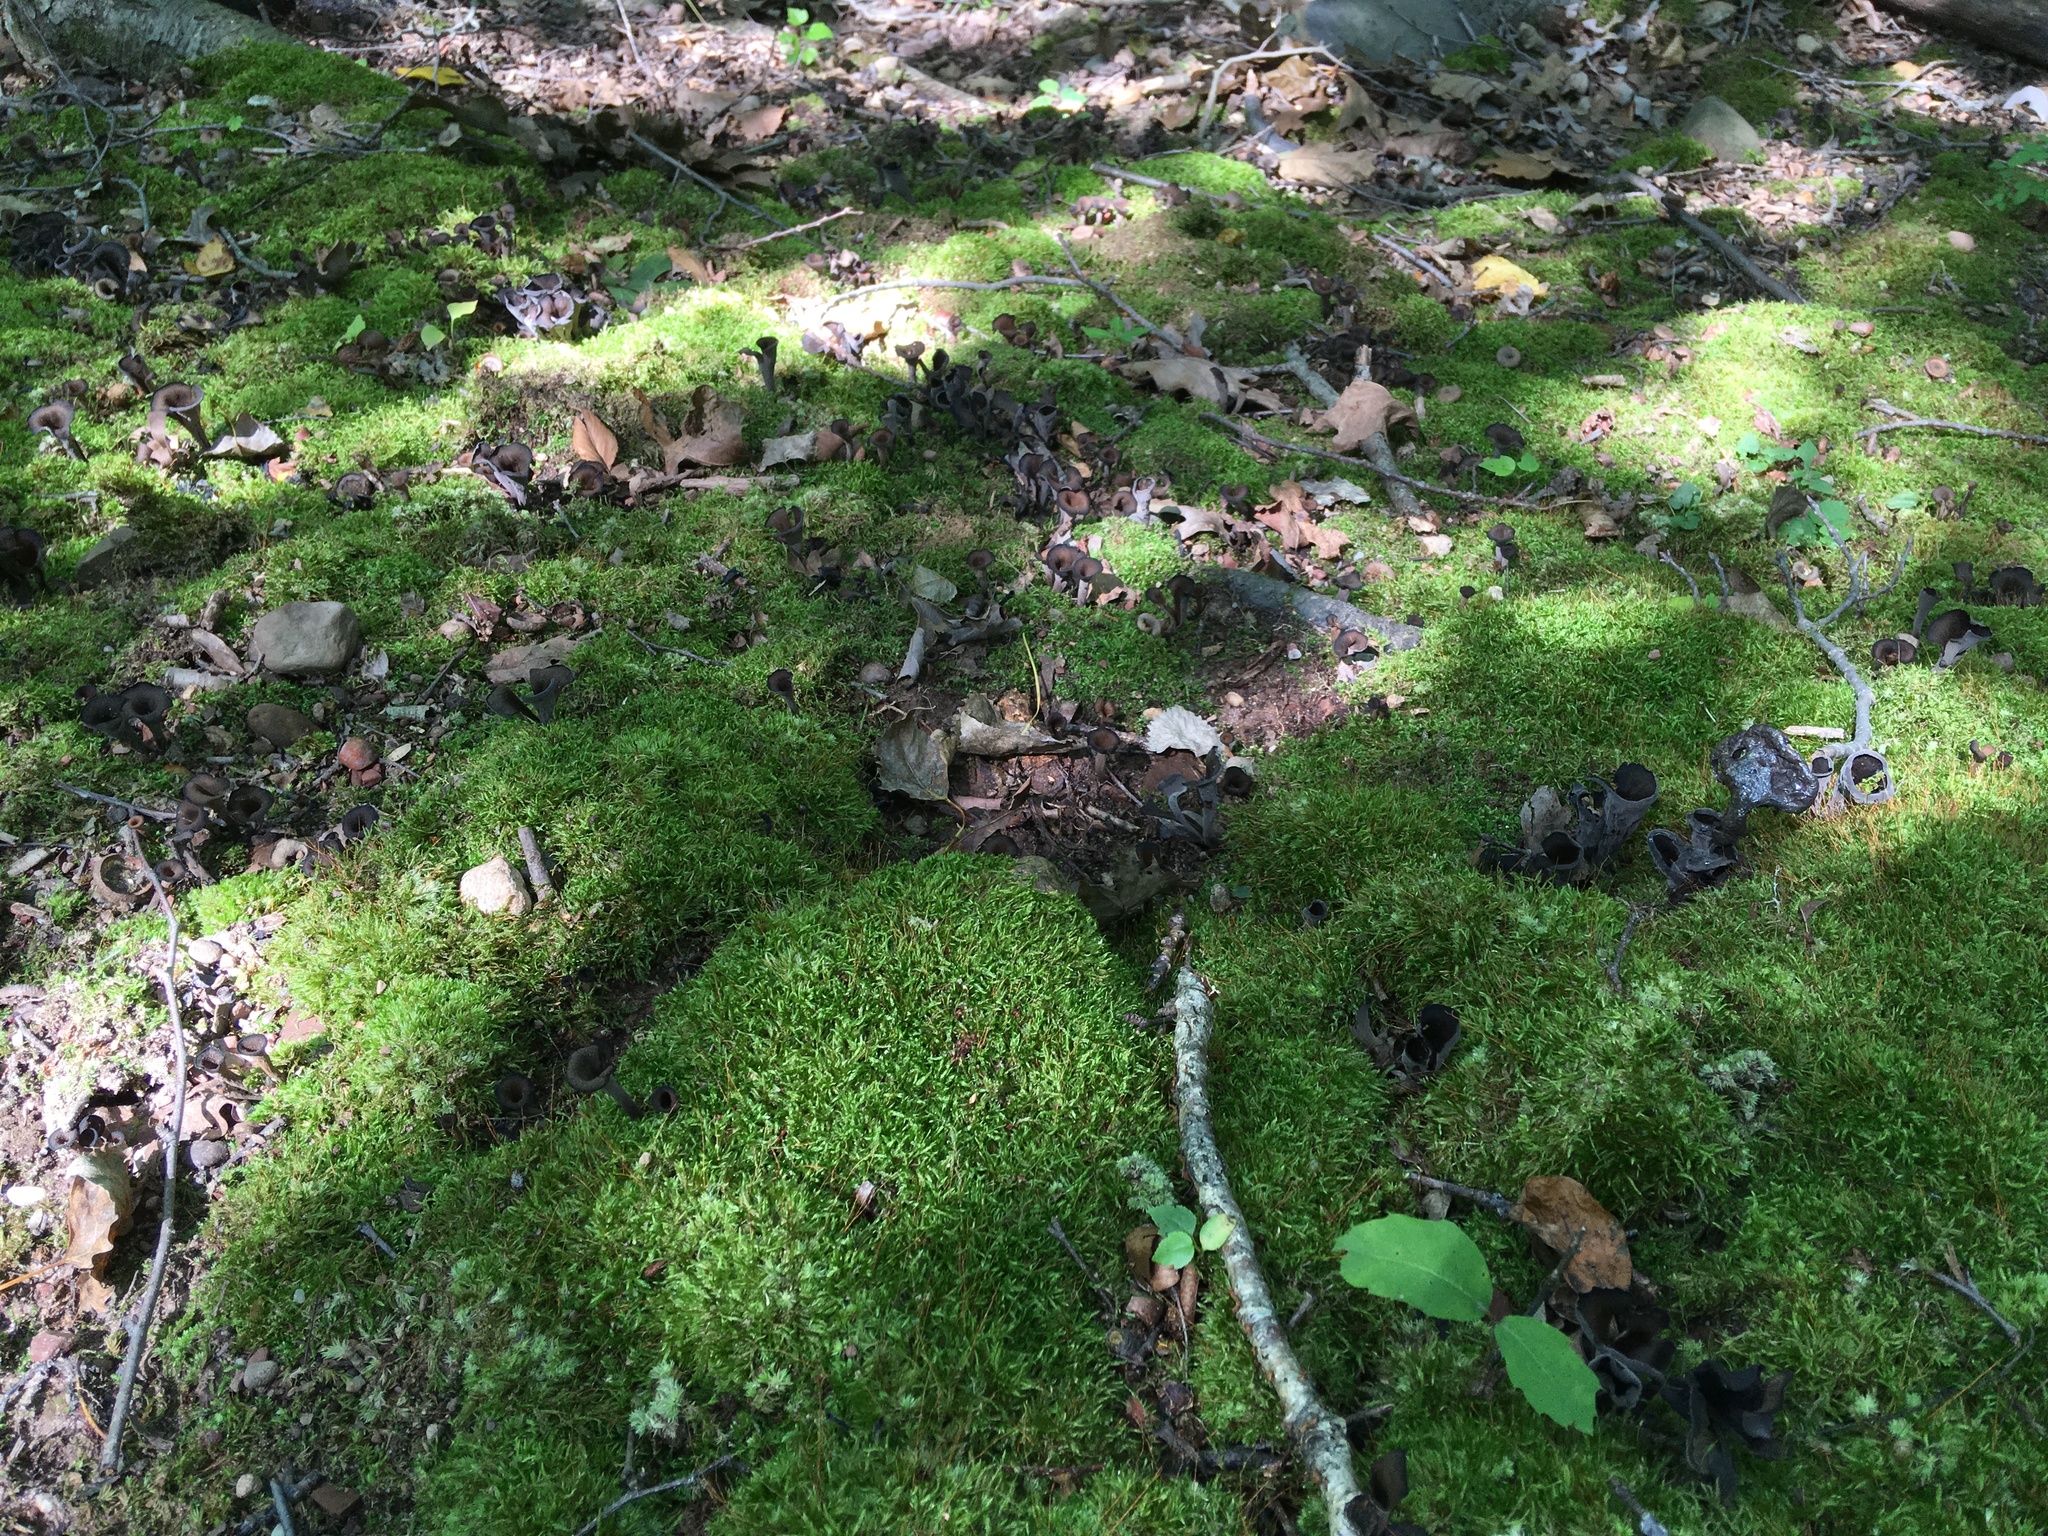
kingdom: Fungi
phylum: Basidiomycota
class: Agaricomycetes
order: Cantharellales
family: Hydnaceae
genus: Craterellus
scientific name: Craterellus cornucopioides
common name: Horn of plenty
